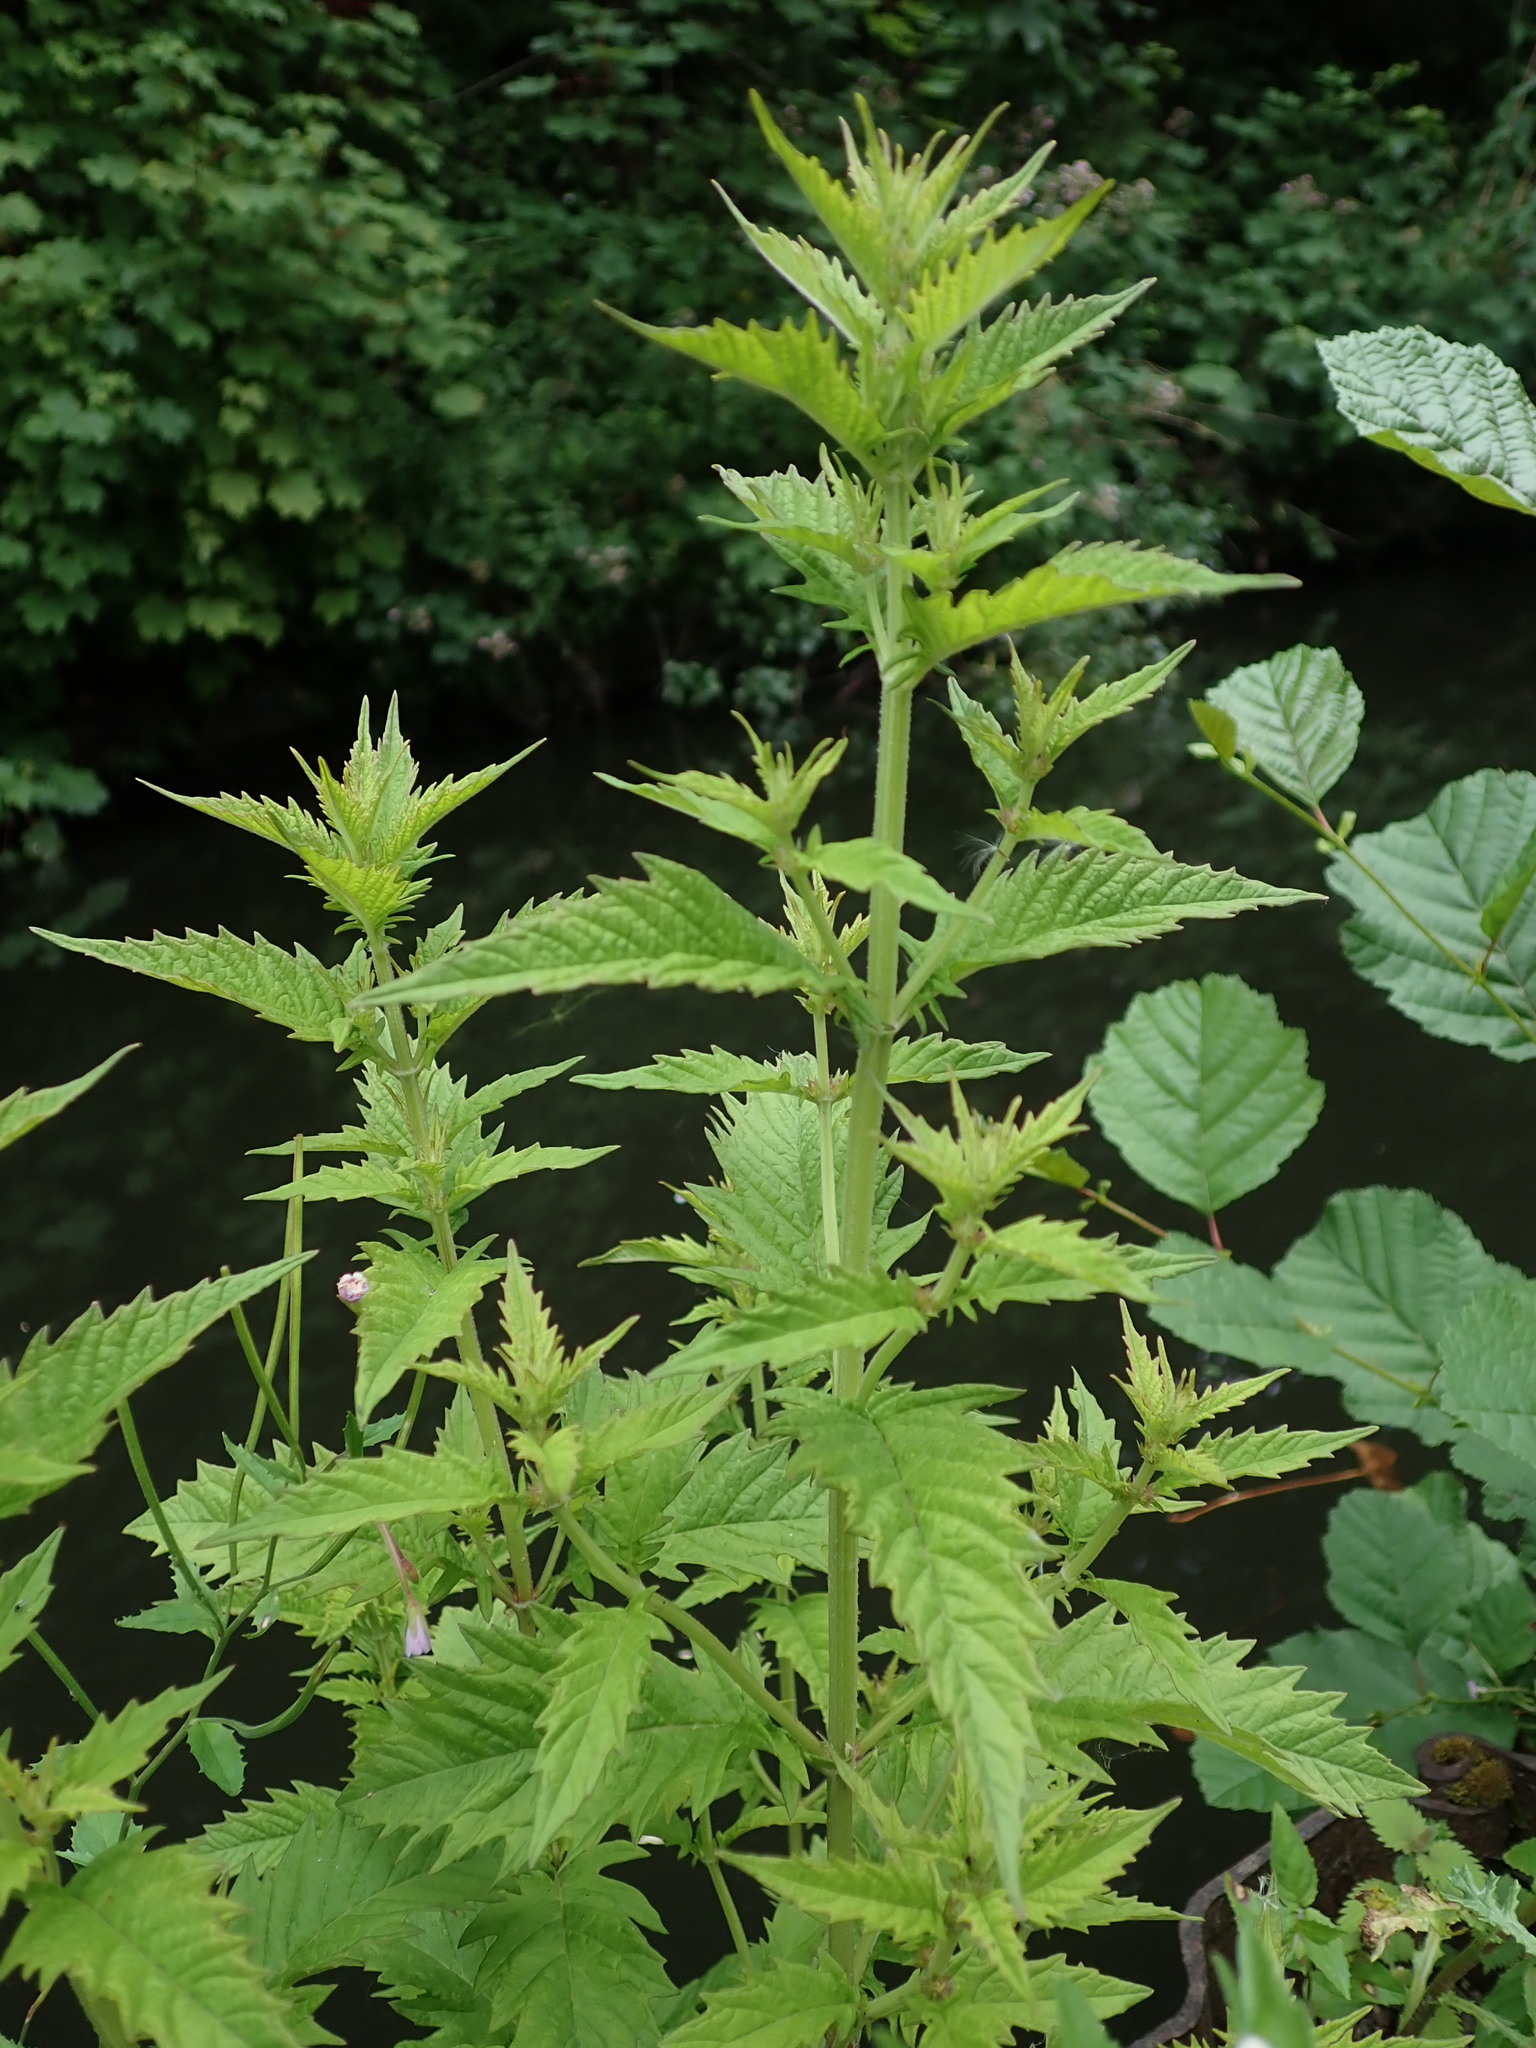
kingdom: Plantae
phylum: Tracheophyta
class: Magnoliopsida
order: Lamiales
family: Lamiaceae
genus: Lycopus
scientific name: Lycopus europaeus
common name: European bugleweed
